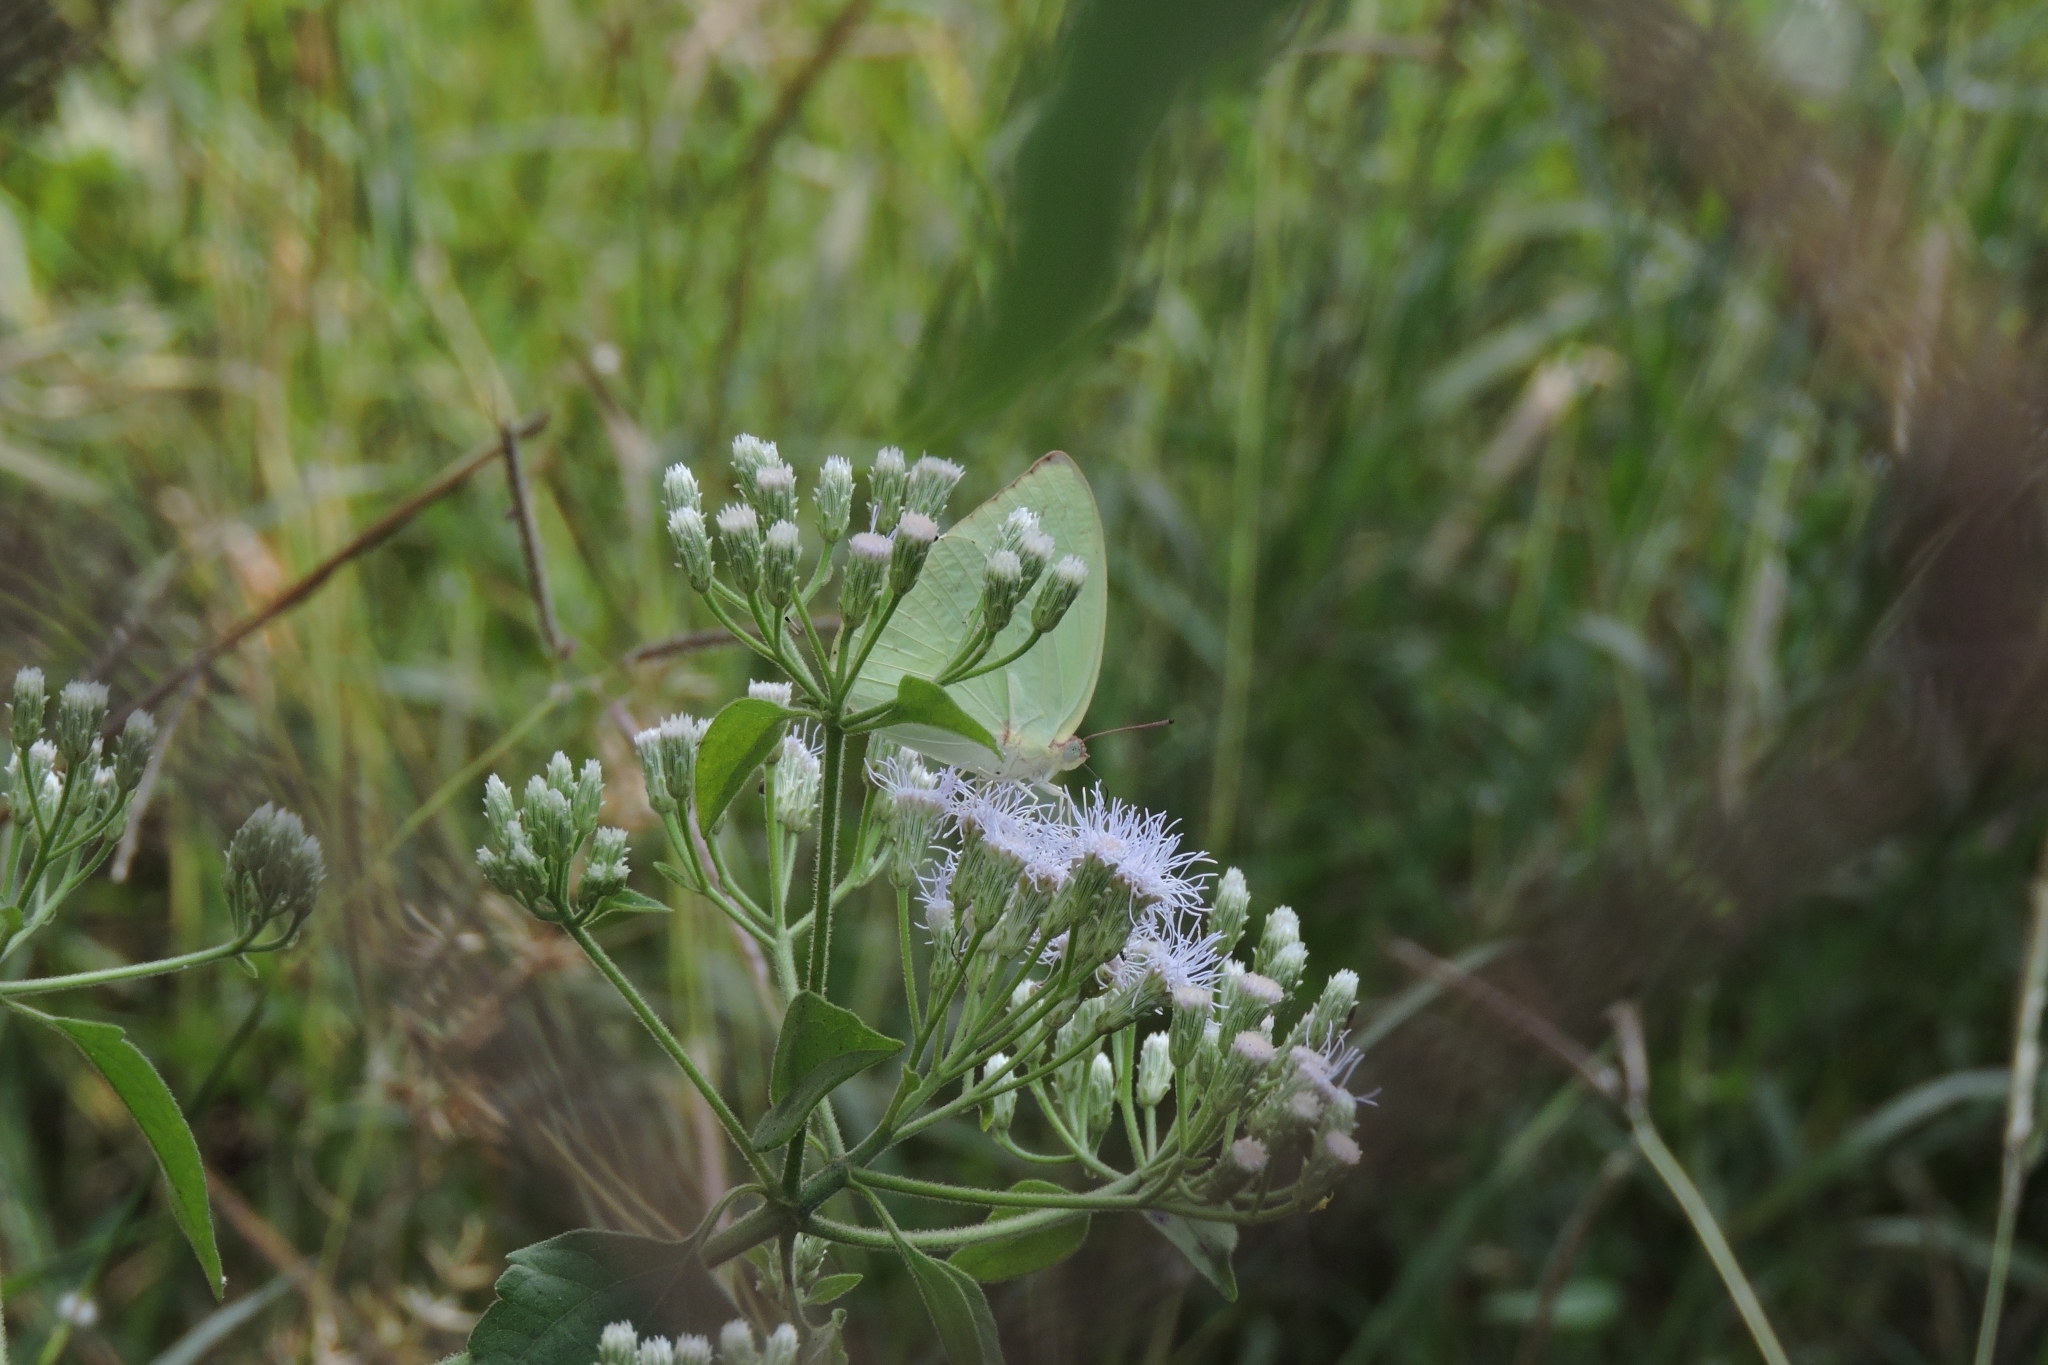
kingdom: Plantae
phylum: Tracheophyta
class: Magnoliopsida
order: Asterales
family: Asteraceae
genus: Chromolaena
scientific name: Chromolaena odorata
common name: Siamweed
